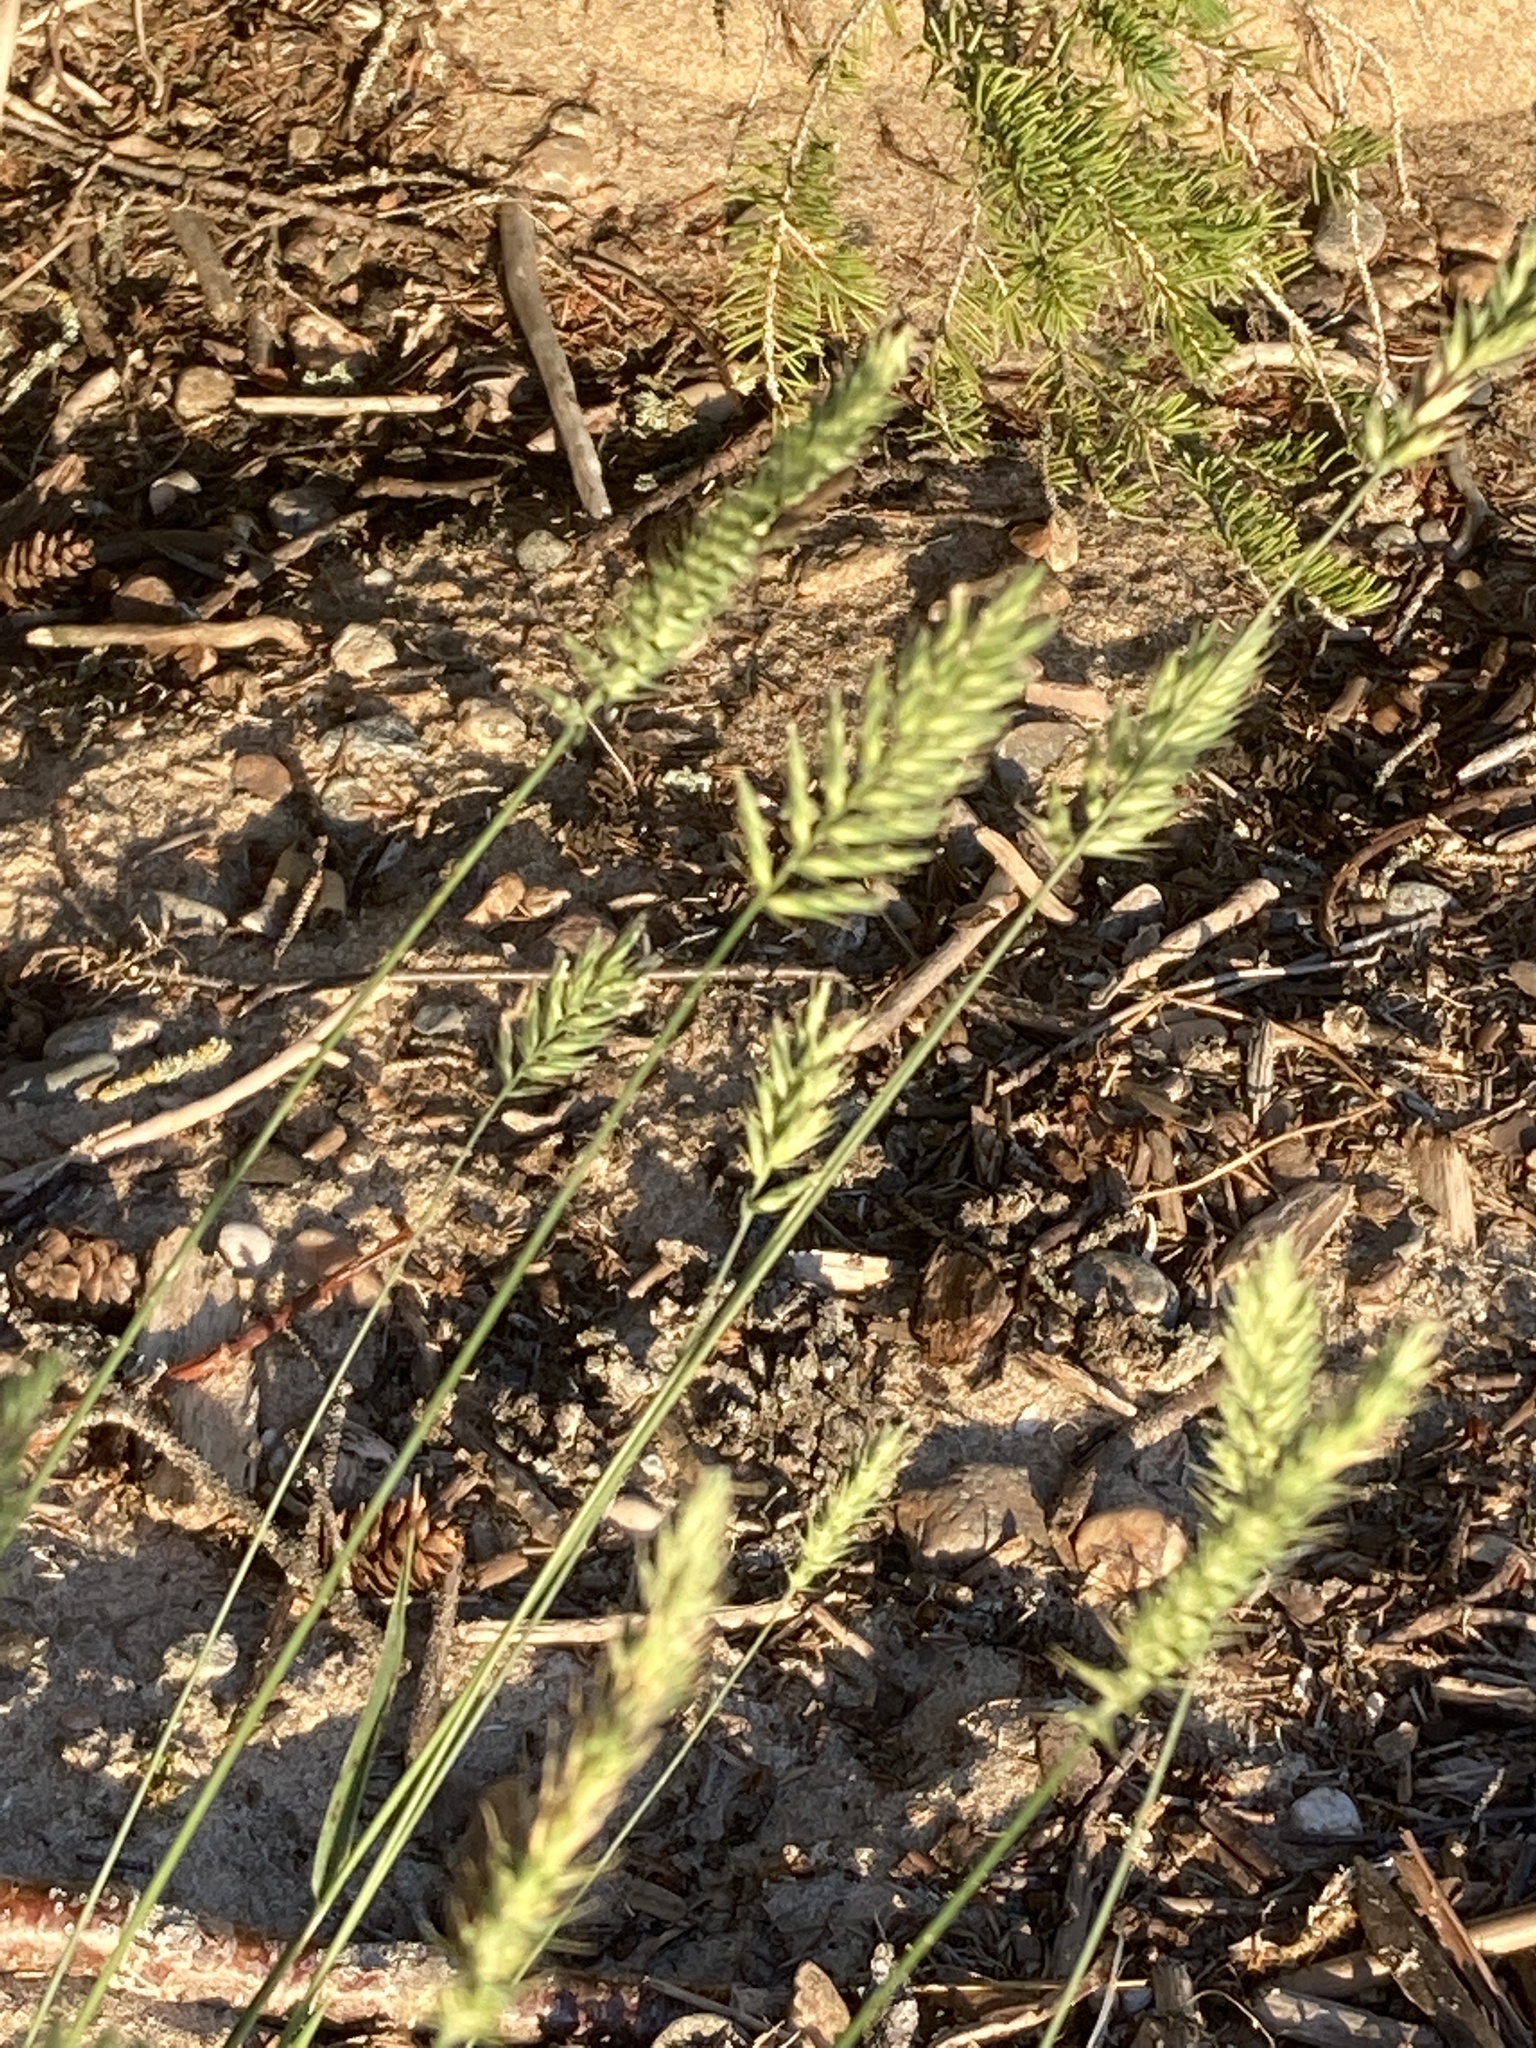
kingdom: Plantae
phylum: Tracheophyta
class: Liliopsida
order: Poales
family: Poaceae
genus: Agropyron
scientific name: Agropyron cristatum
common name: Crested wheatgrass
